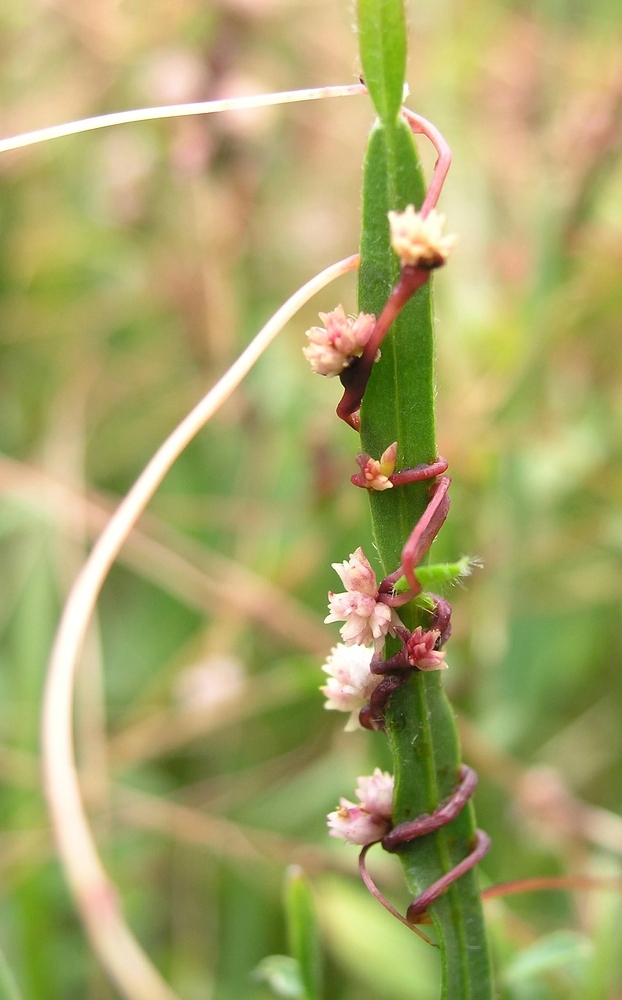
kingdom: Plantae
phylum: Tracheophyta
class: Magnoliopsida
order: Solanales
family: Convolvulaceae
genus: Cuscuta
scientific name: Cuscuta epithymum
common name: Clover dodder
